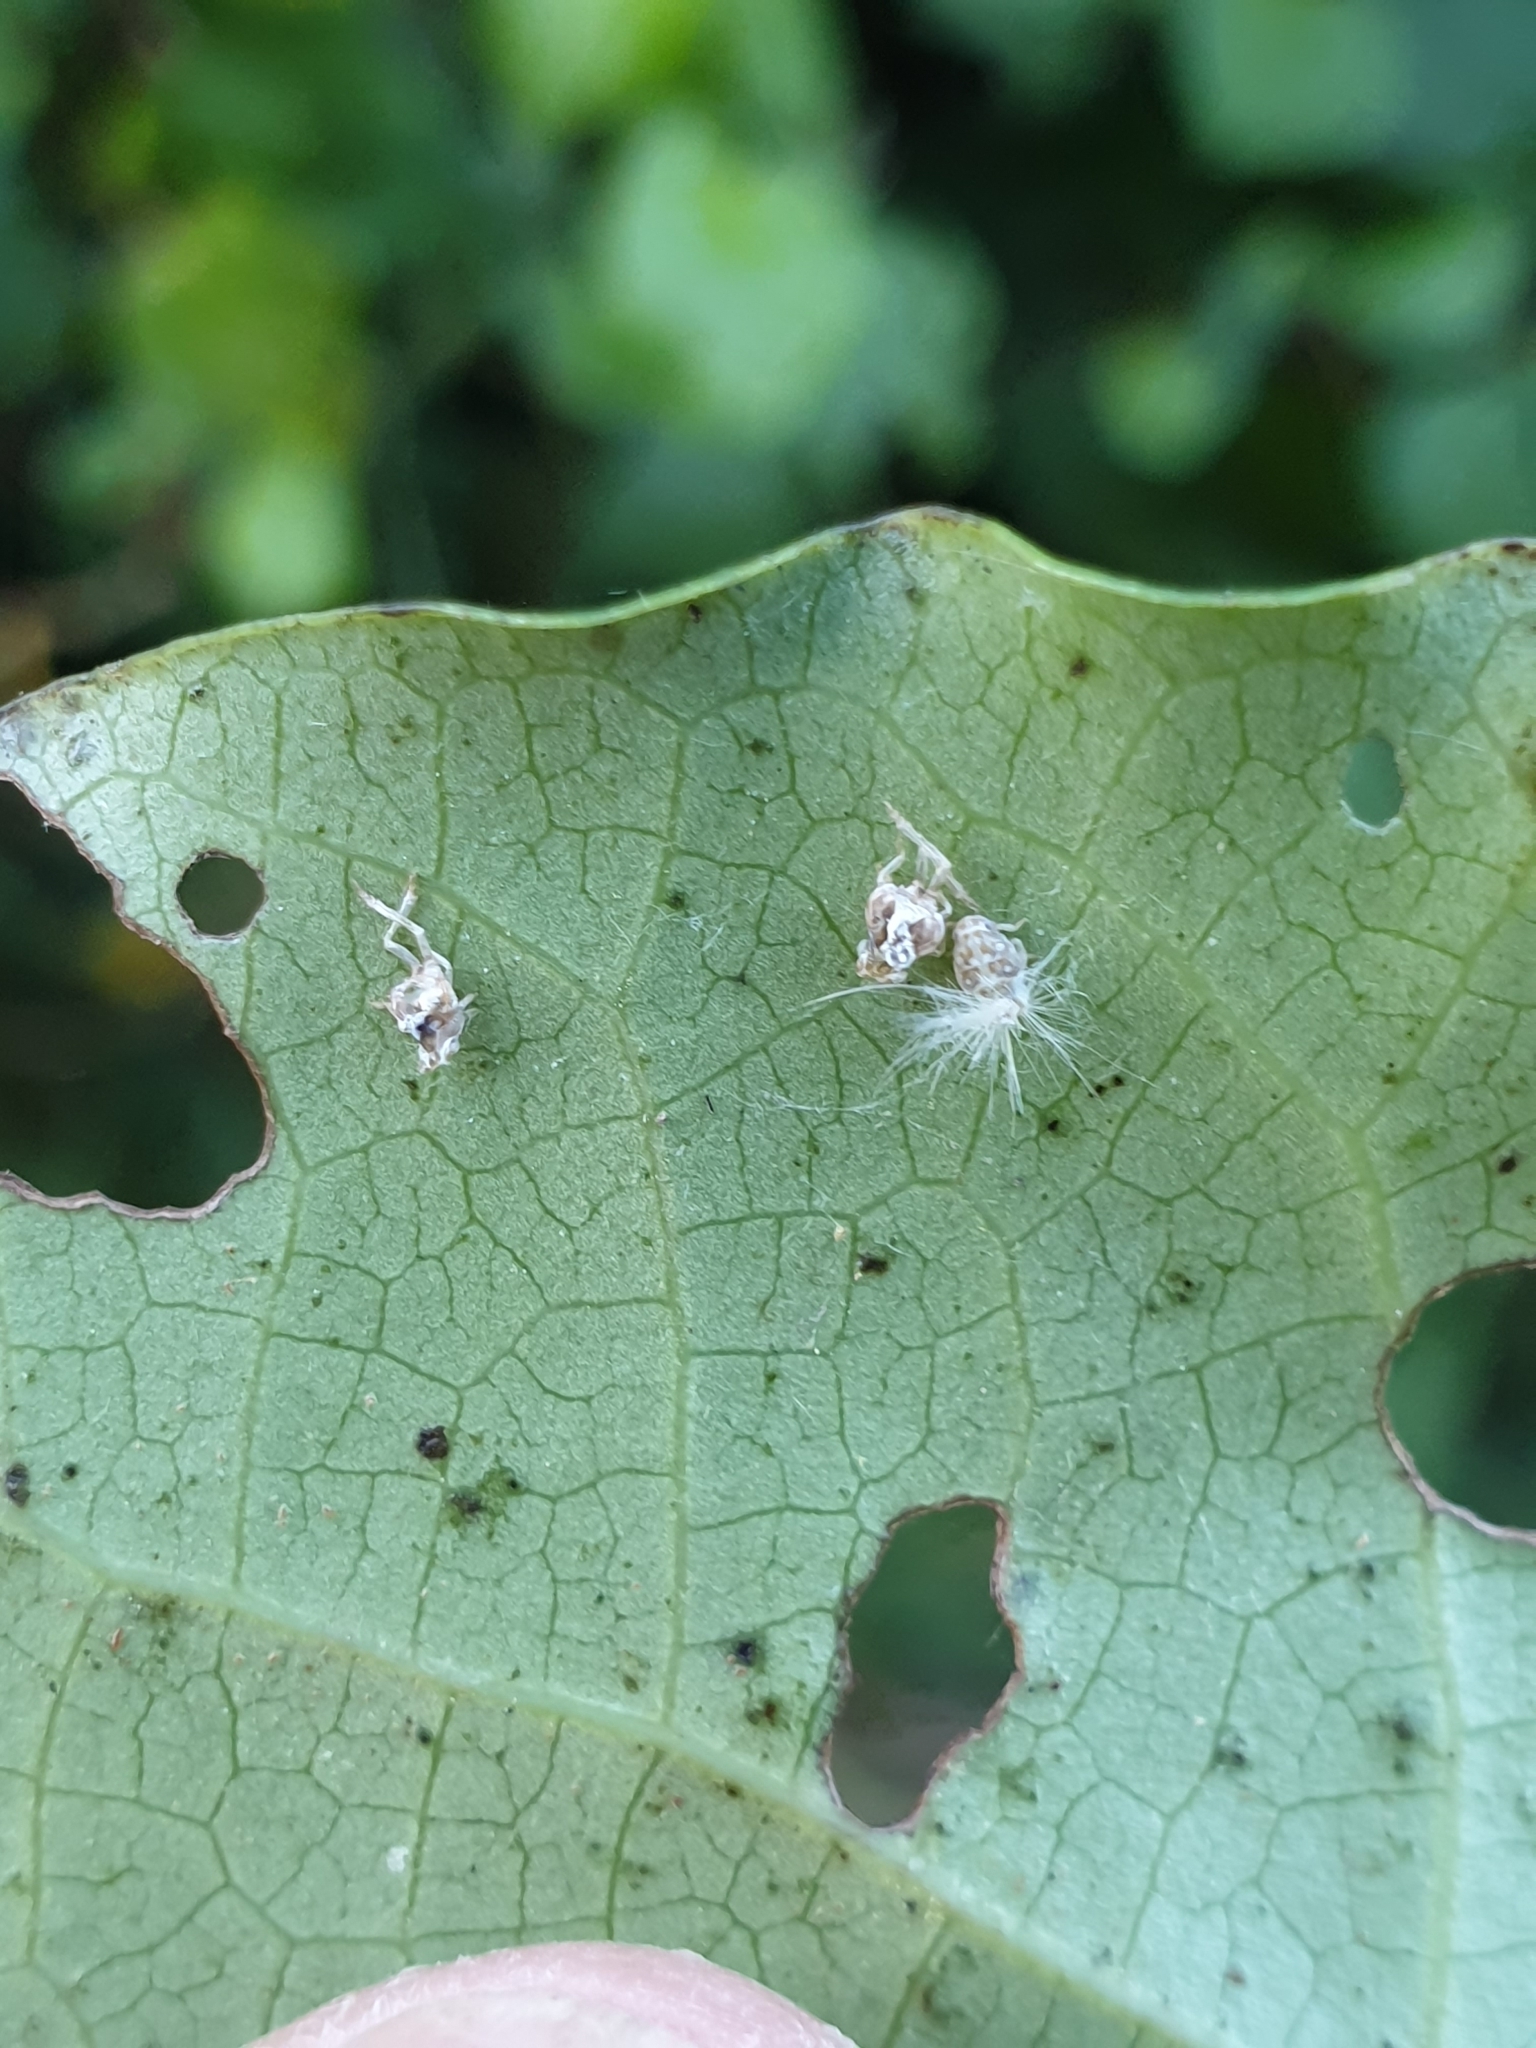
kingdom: Animalia
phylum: Arthropoda
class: Insecta
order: Hemiptera
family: Ricaniidae
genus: Scolypopa
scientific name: Scolypopa australis
